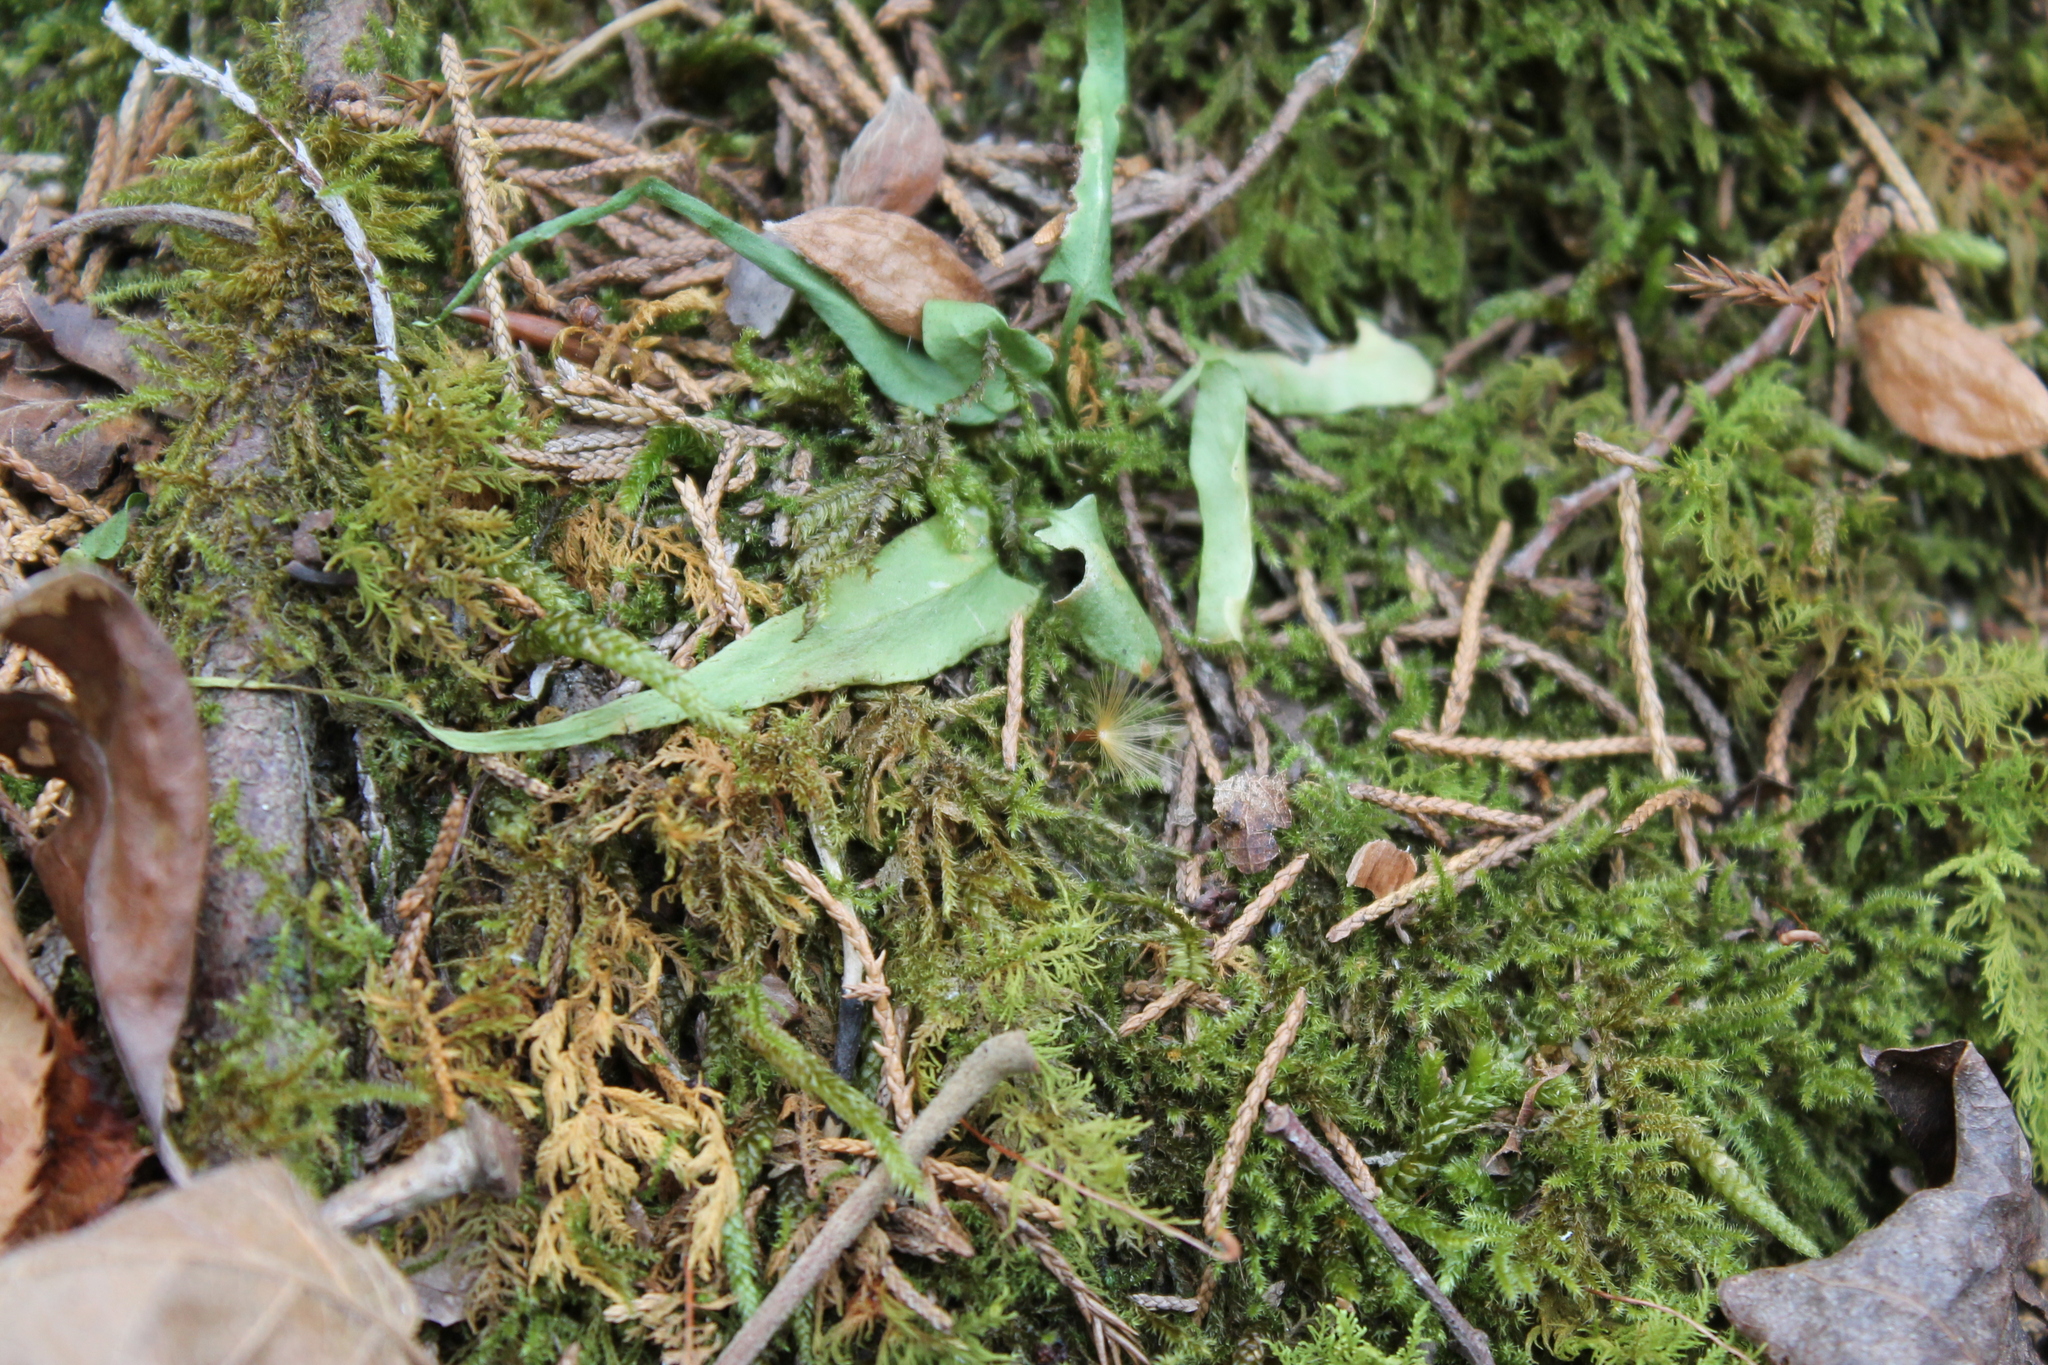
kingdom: Plantae
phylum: Tracheophyta
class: Polypodiopsida
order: Polypodiales
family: Aspleniaceae
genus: Asplenium
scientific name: Asplenium rhizophyllum
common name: Walking fern
